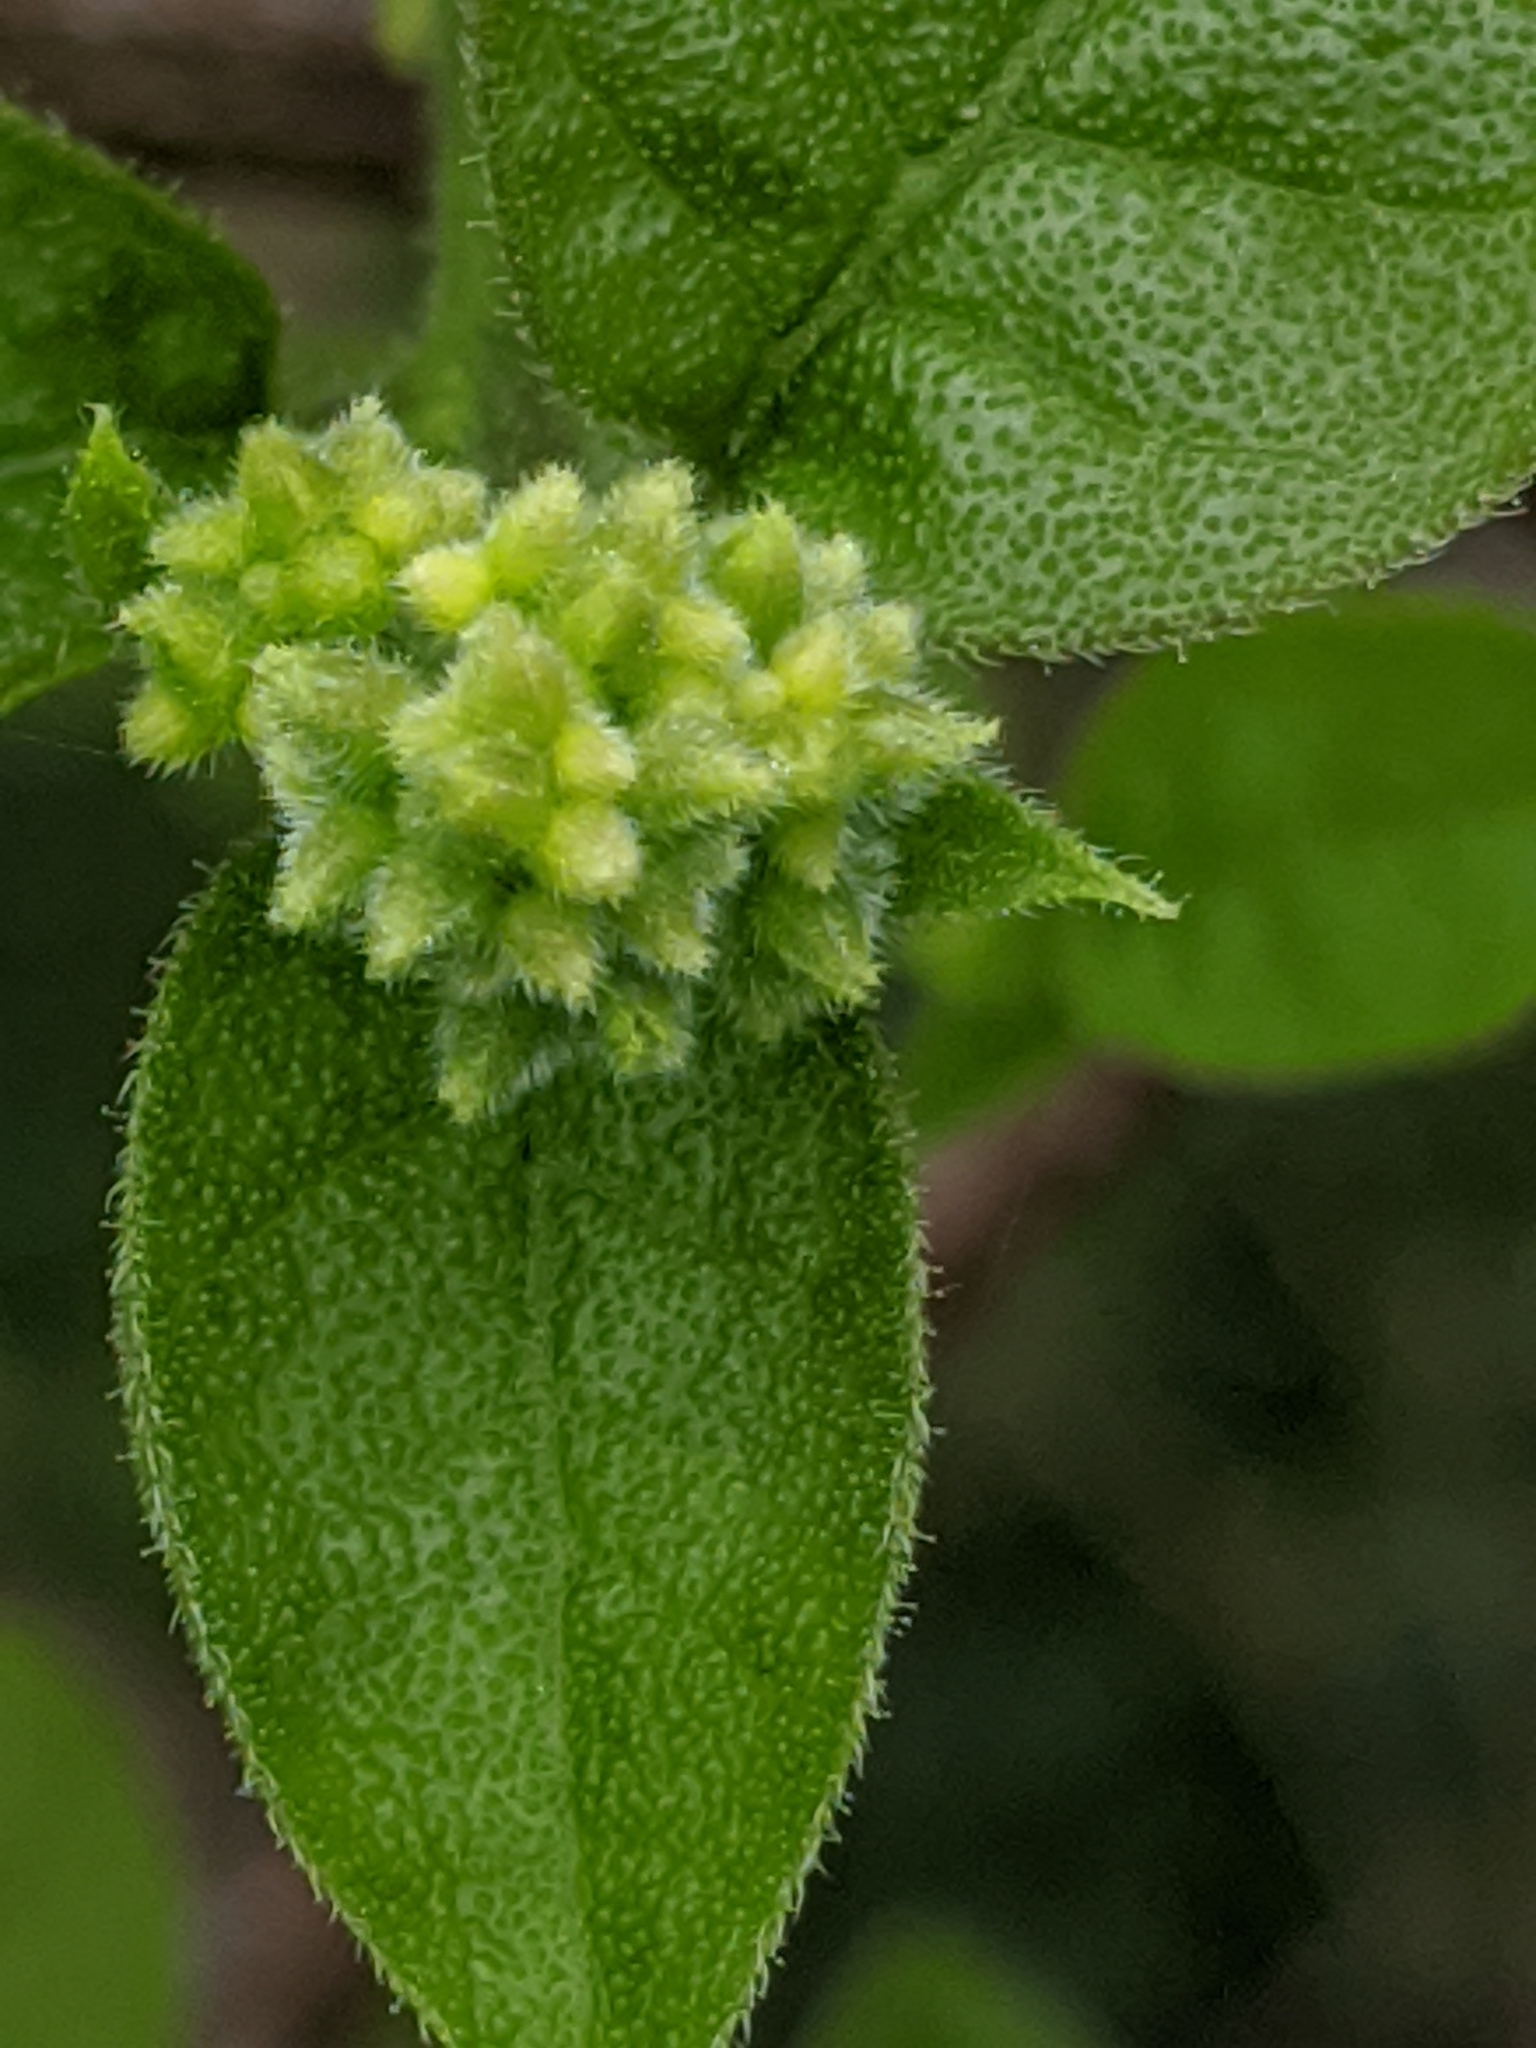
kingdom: Plantae
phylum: Tracheophyta
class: Magnoliopsida
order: Boraginales
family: Ehretiaceae
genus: Ehretia
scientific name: Ehretia anacua
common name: Sugarberry
